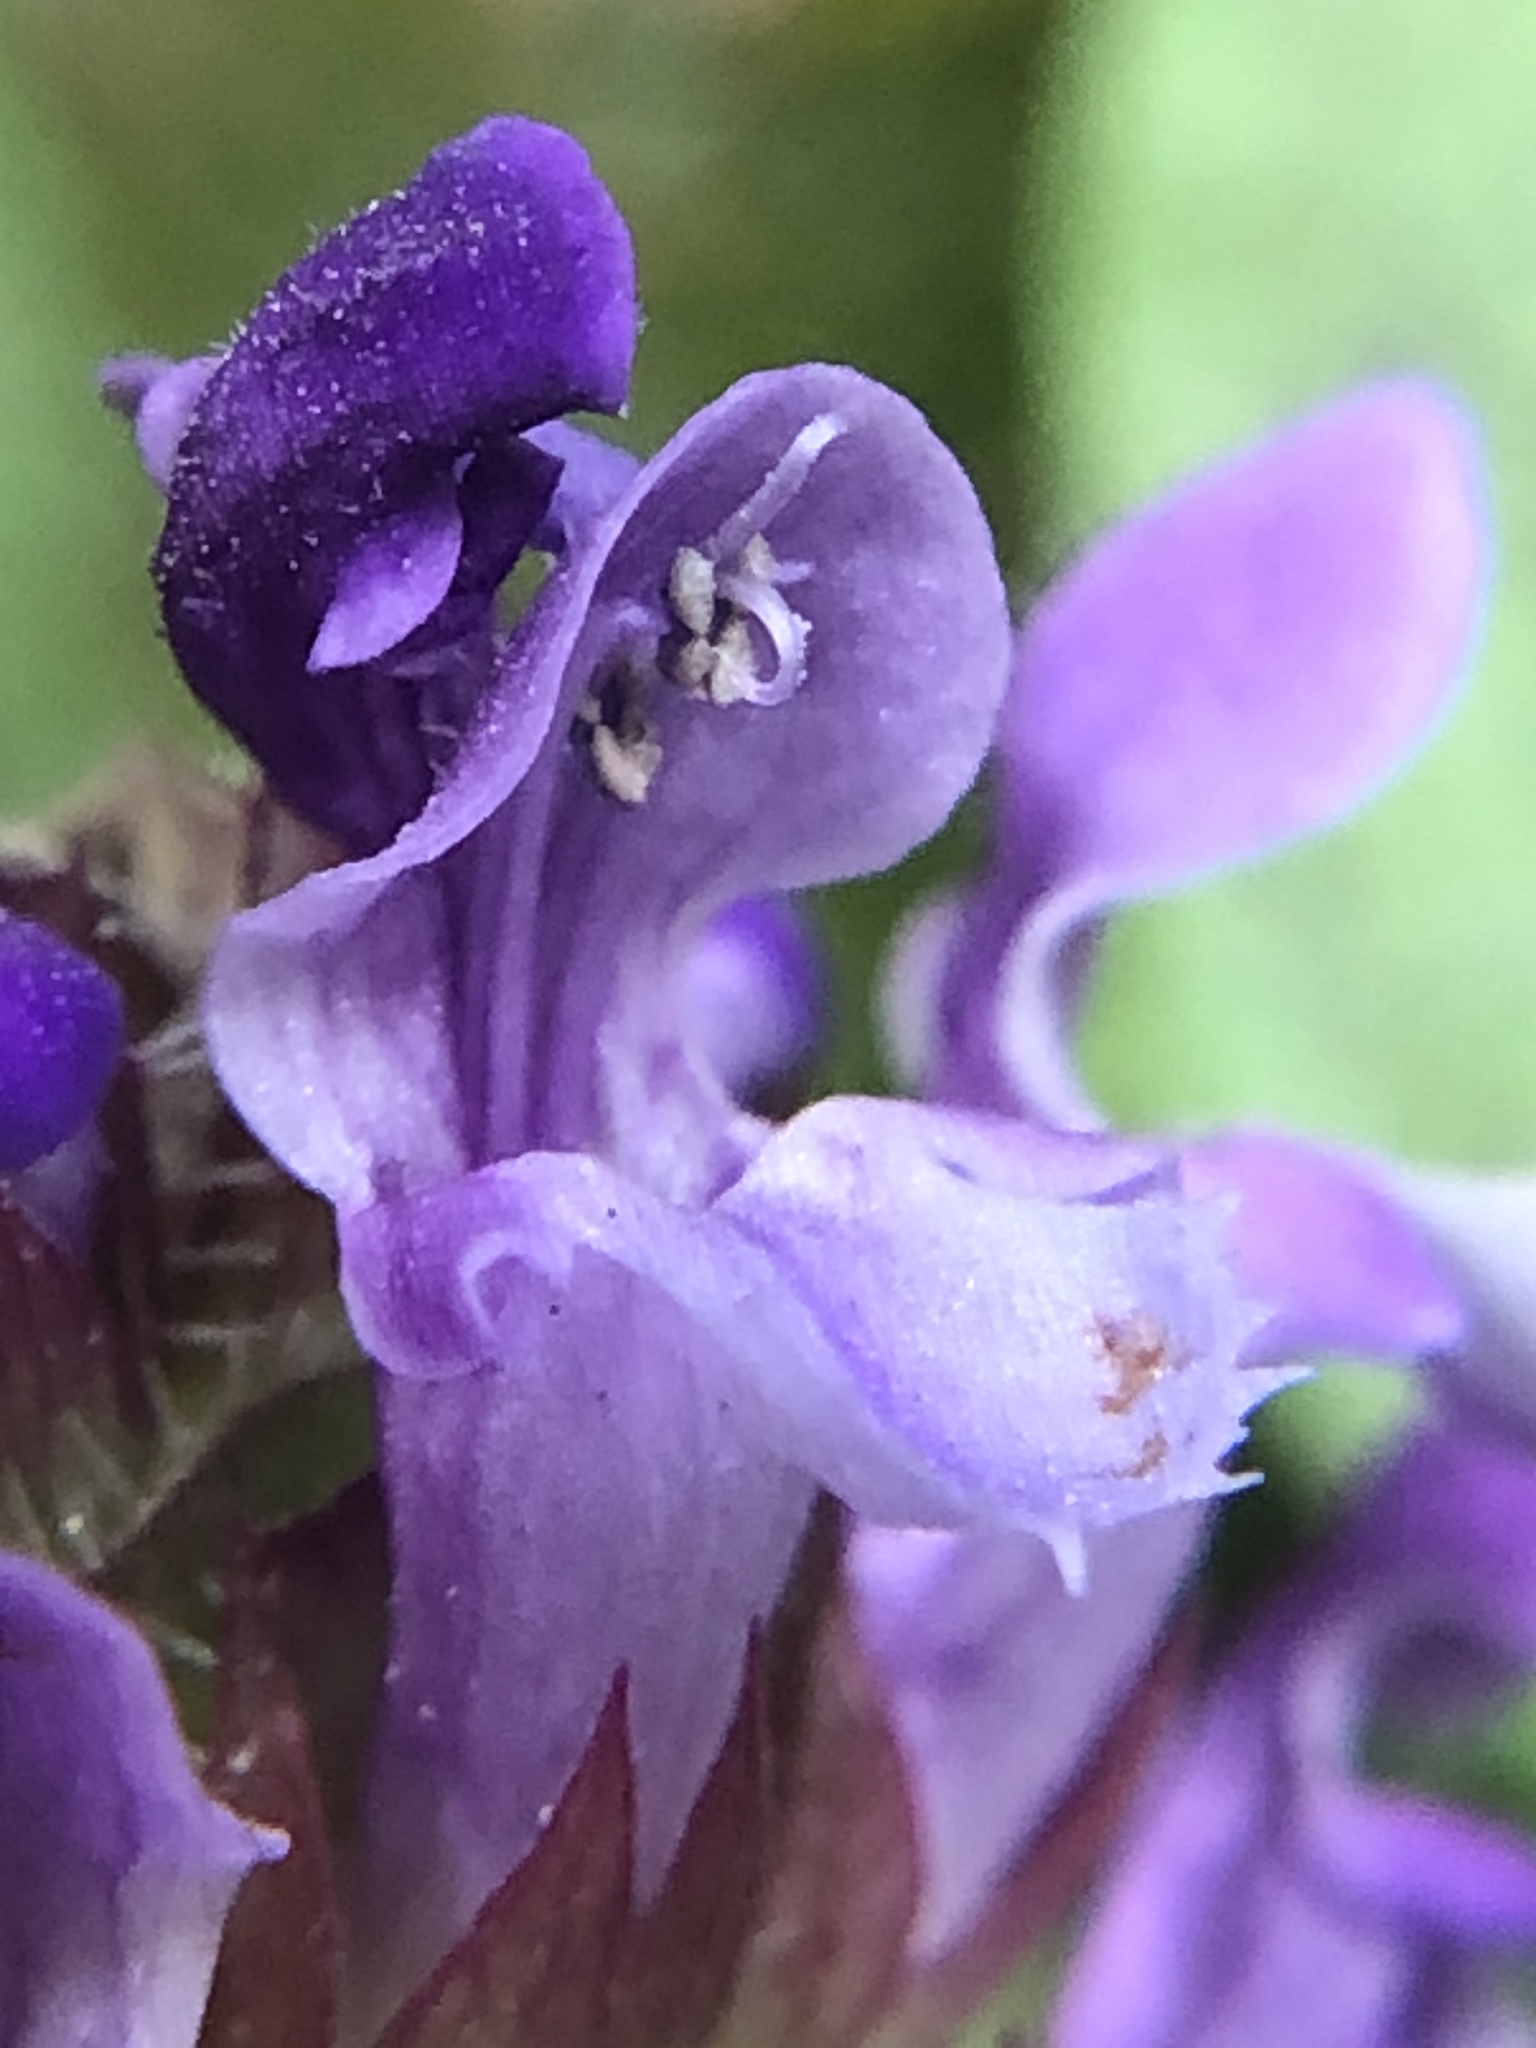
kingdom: Plantae
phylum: Tracheophyta
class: Magnoliopsida
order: Lamiales
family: Lamiaceae
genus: Prunella
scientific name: Prunella vulgaris
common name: Heal-all
